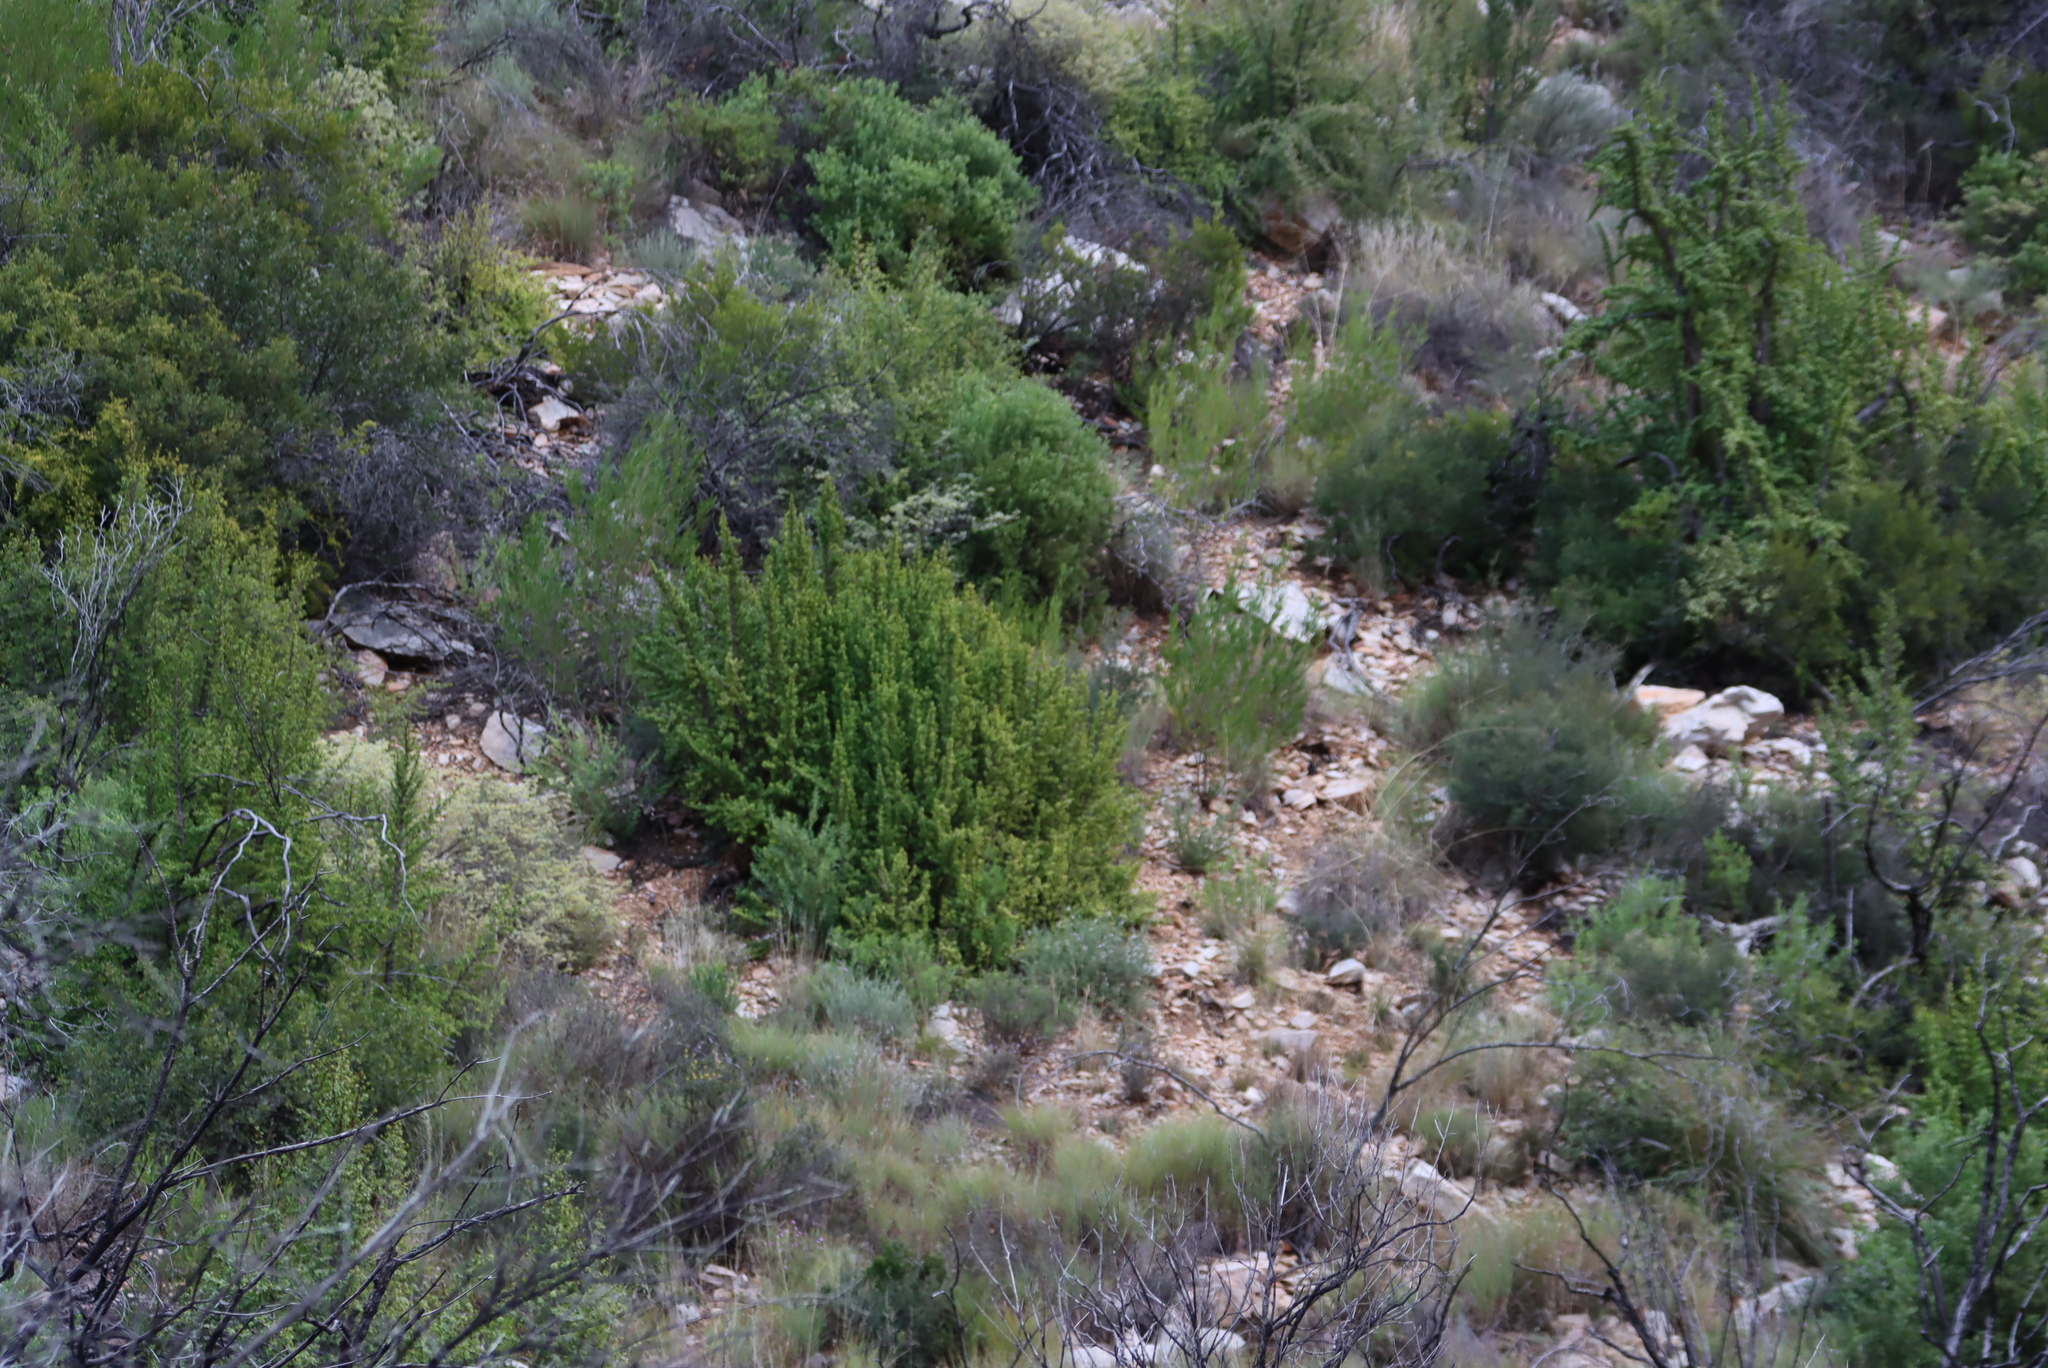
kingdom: Plantae
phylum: Tracheophyta
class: Magnoliopsida
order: Caryophyllales
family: Didiereaceae
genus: Portulacaria
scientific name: Portulacaria afra
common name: Elephant-bush
